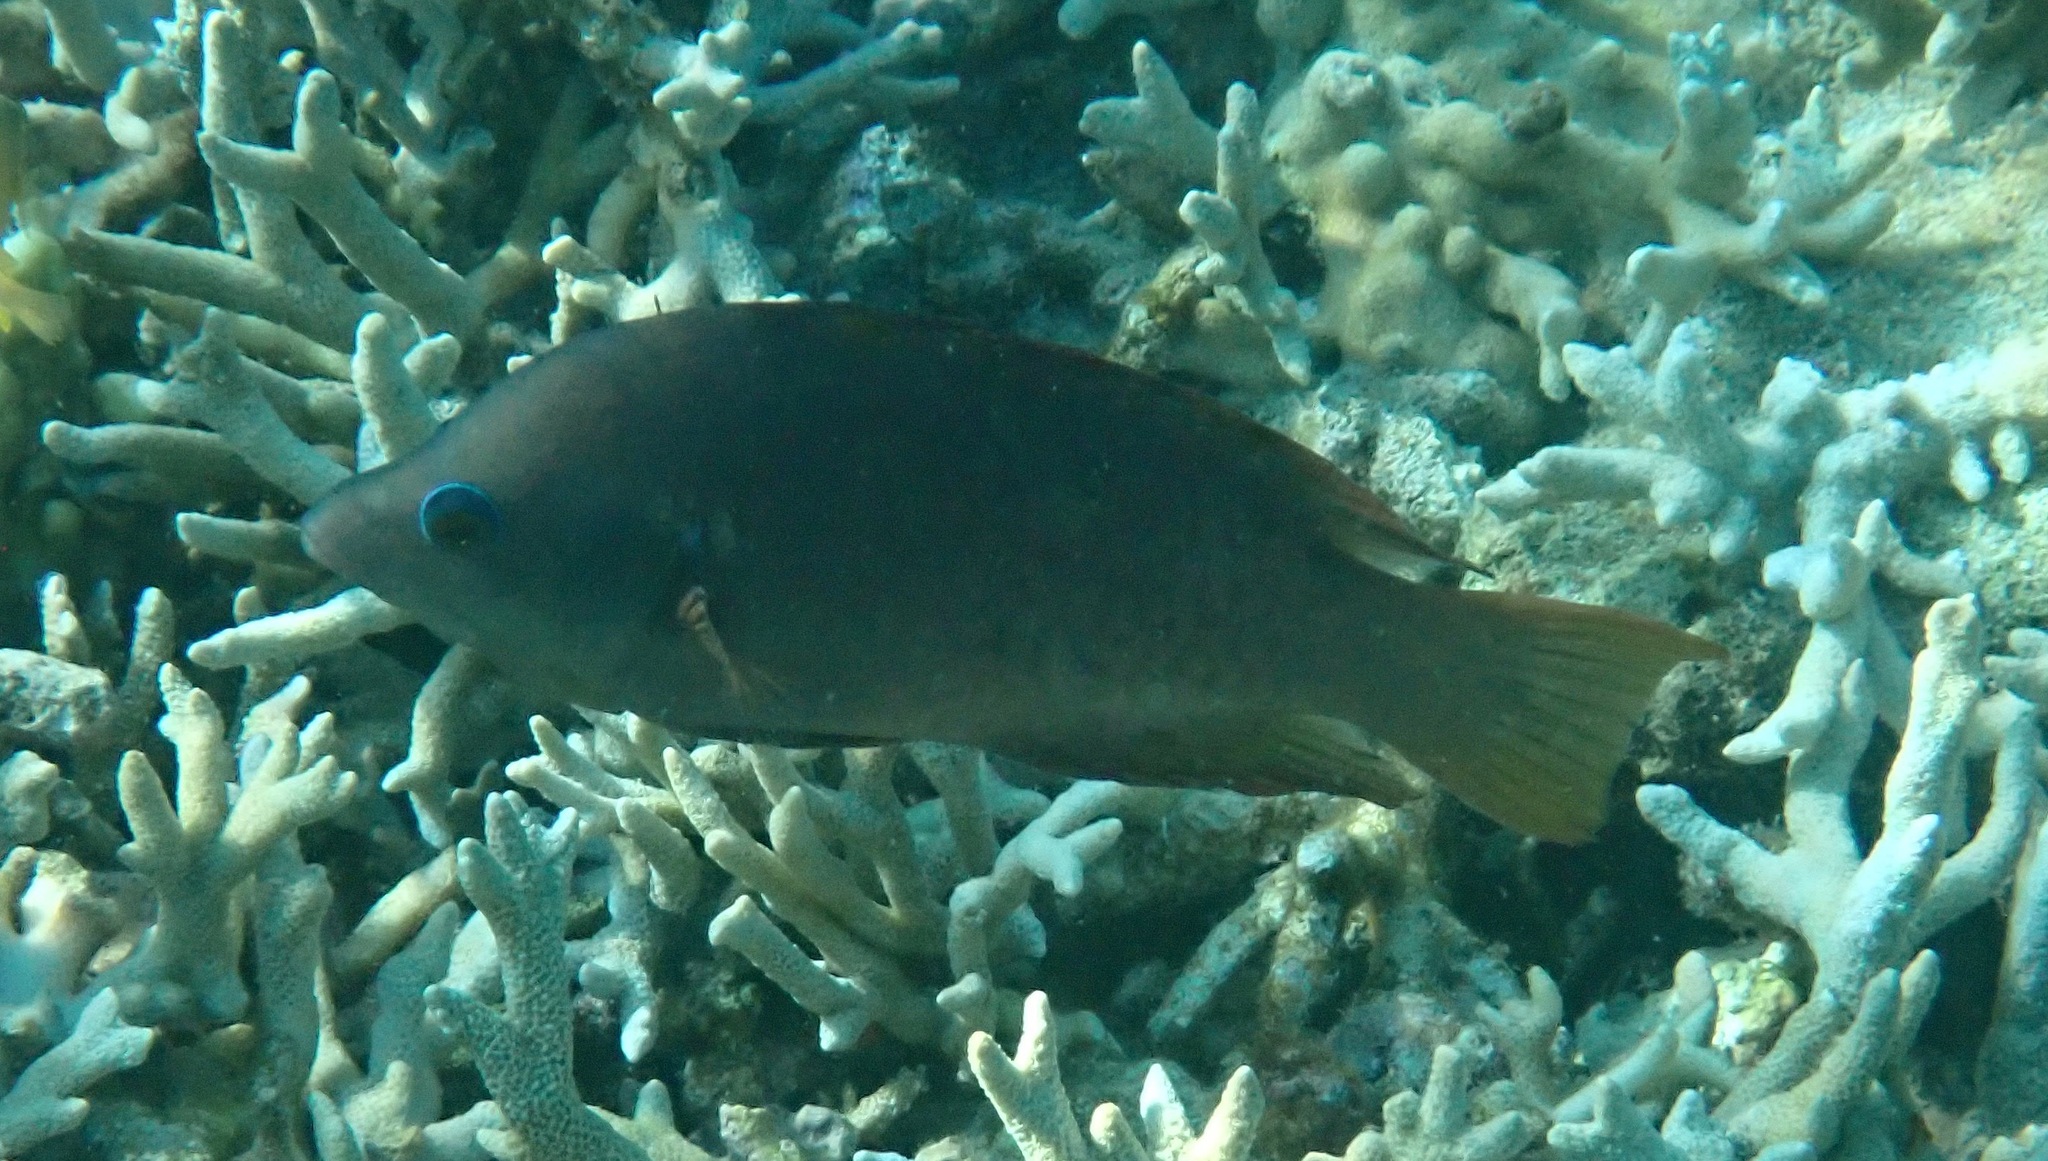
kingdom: Animalia
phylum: Chordata
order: Perciformes
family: Labridae
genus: Epibulus
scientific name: Epibulus insidiator
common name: Slingjaw wrasse
